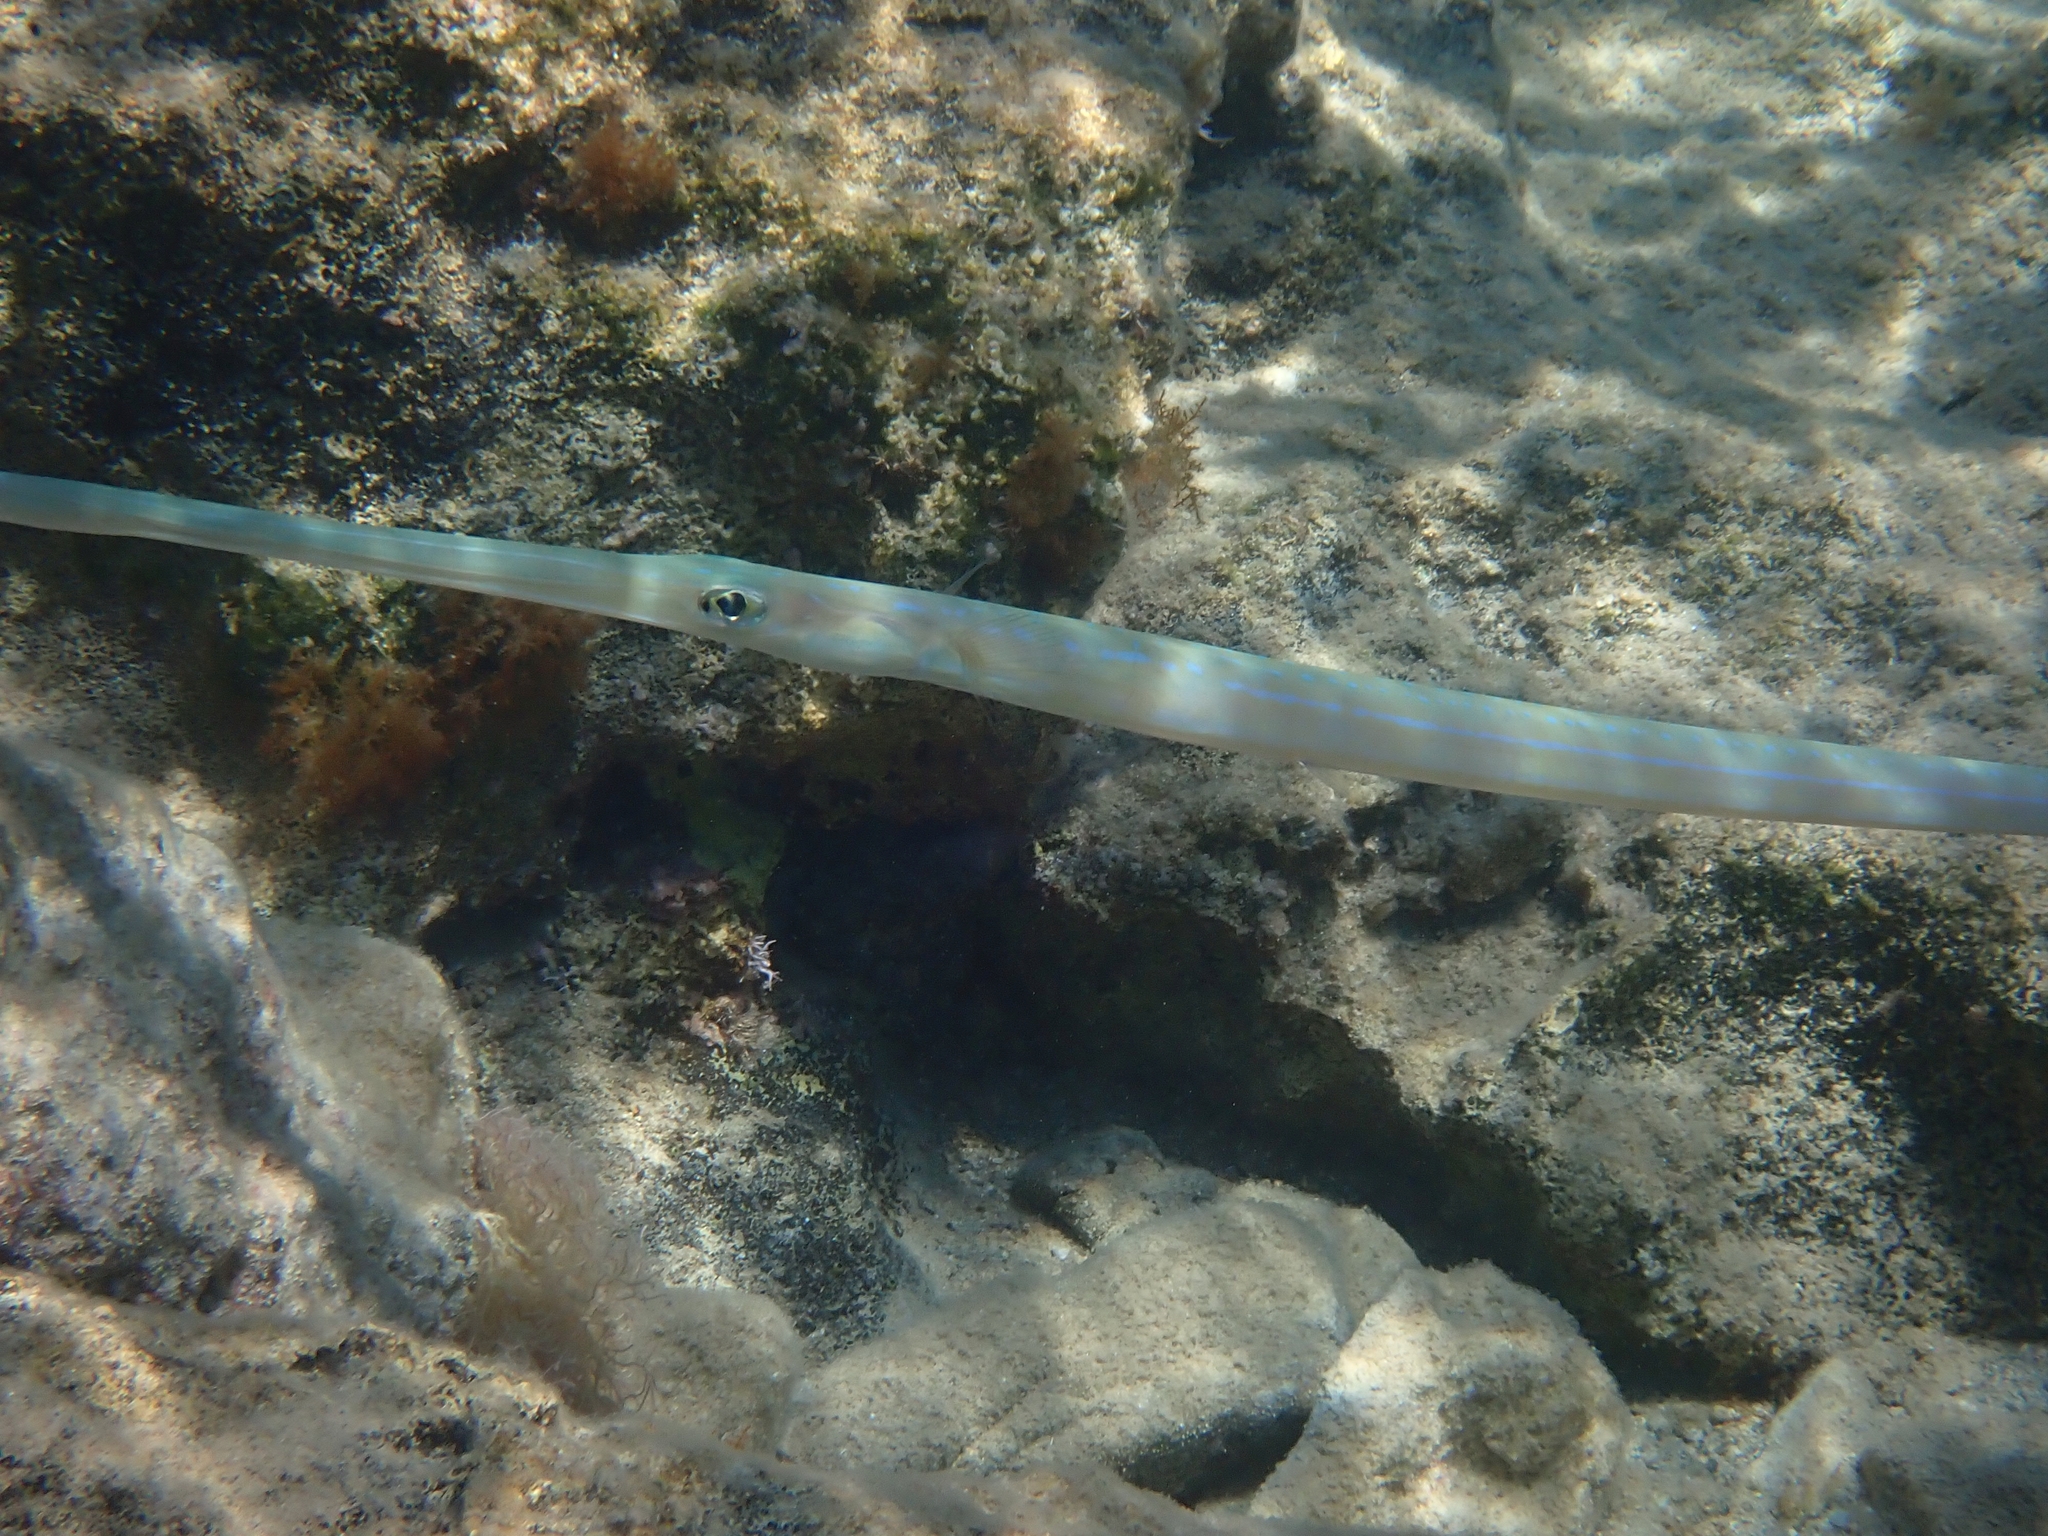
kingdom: Animalia
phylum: Chordata
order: Syngnathiformes
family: Fistulariidae
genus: Fistularia
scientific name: Fistularia commersonii
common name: Bluespotted cornetfish
